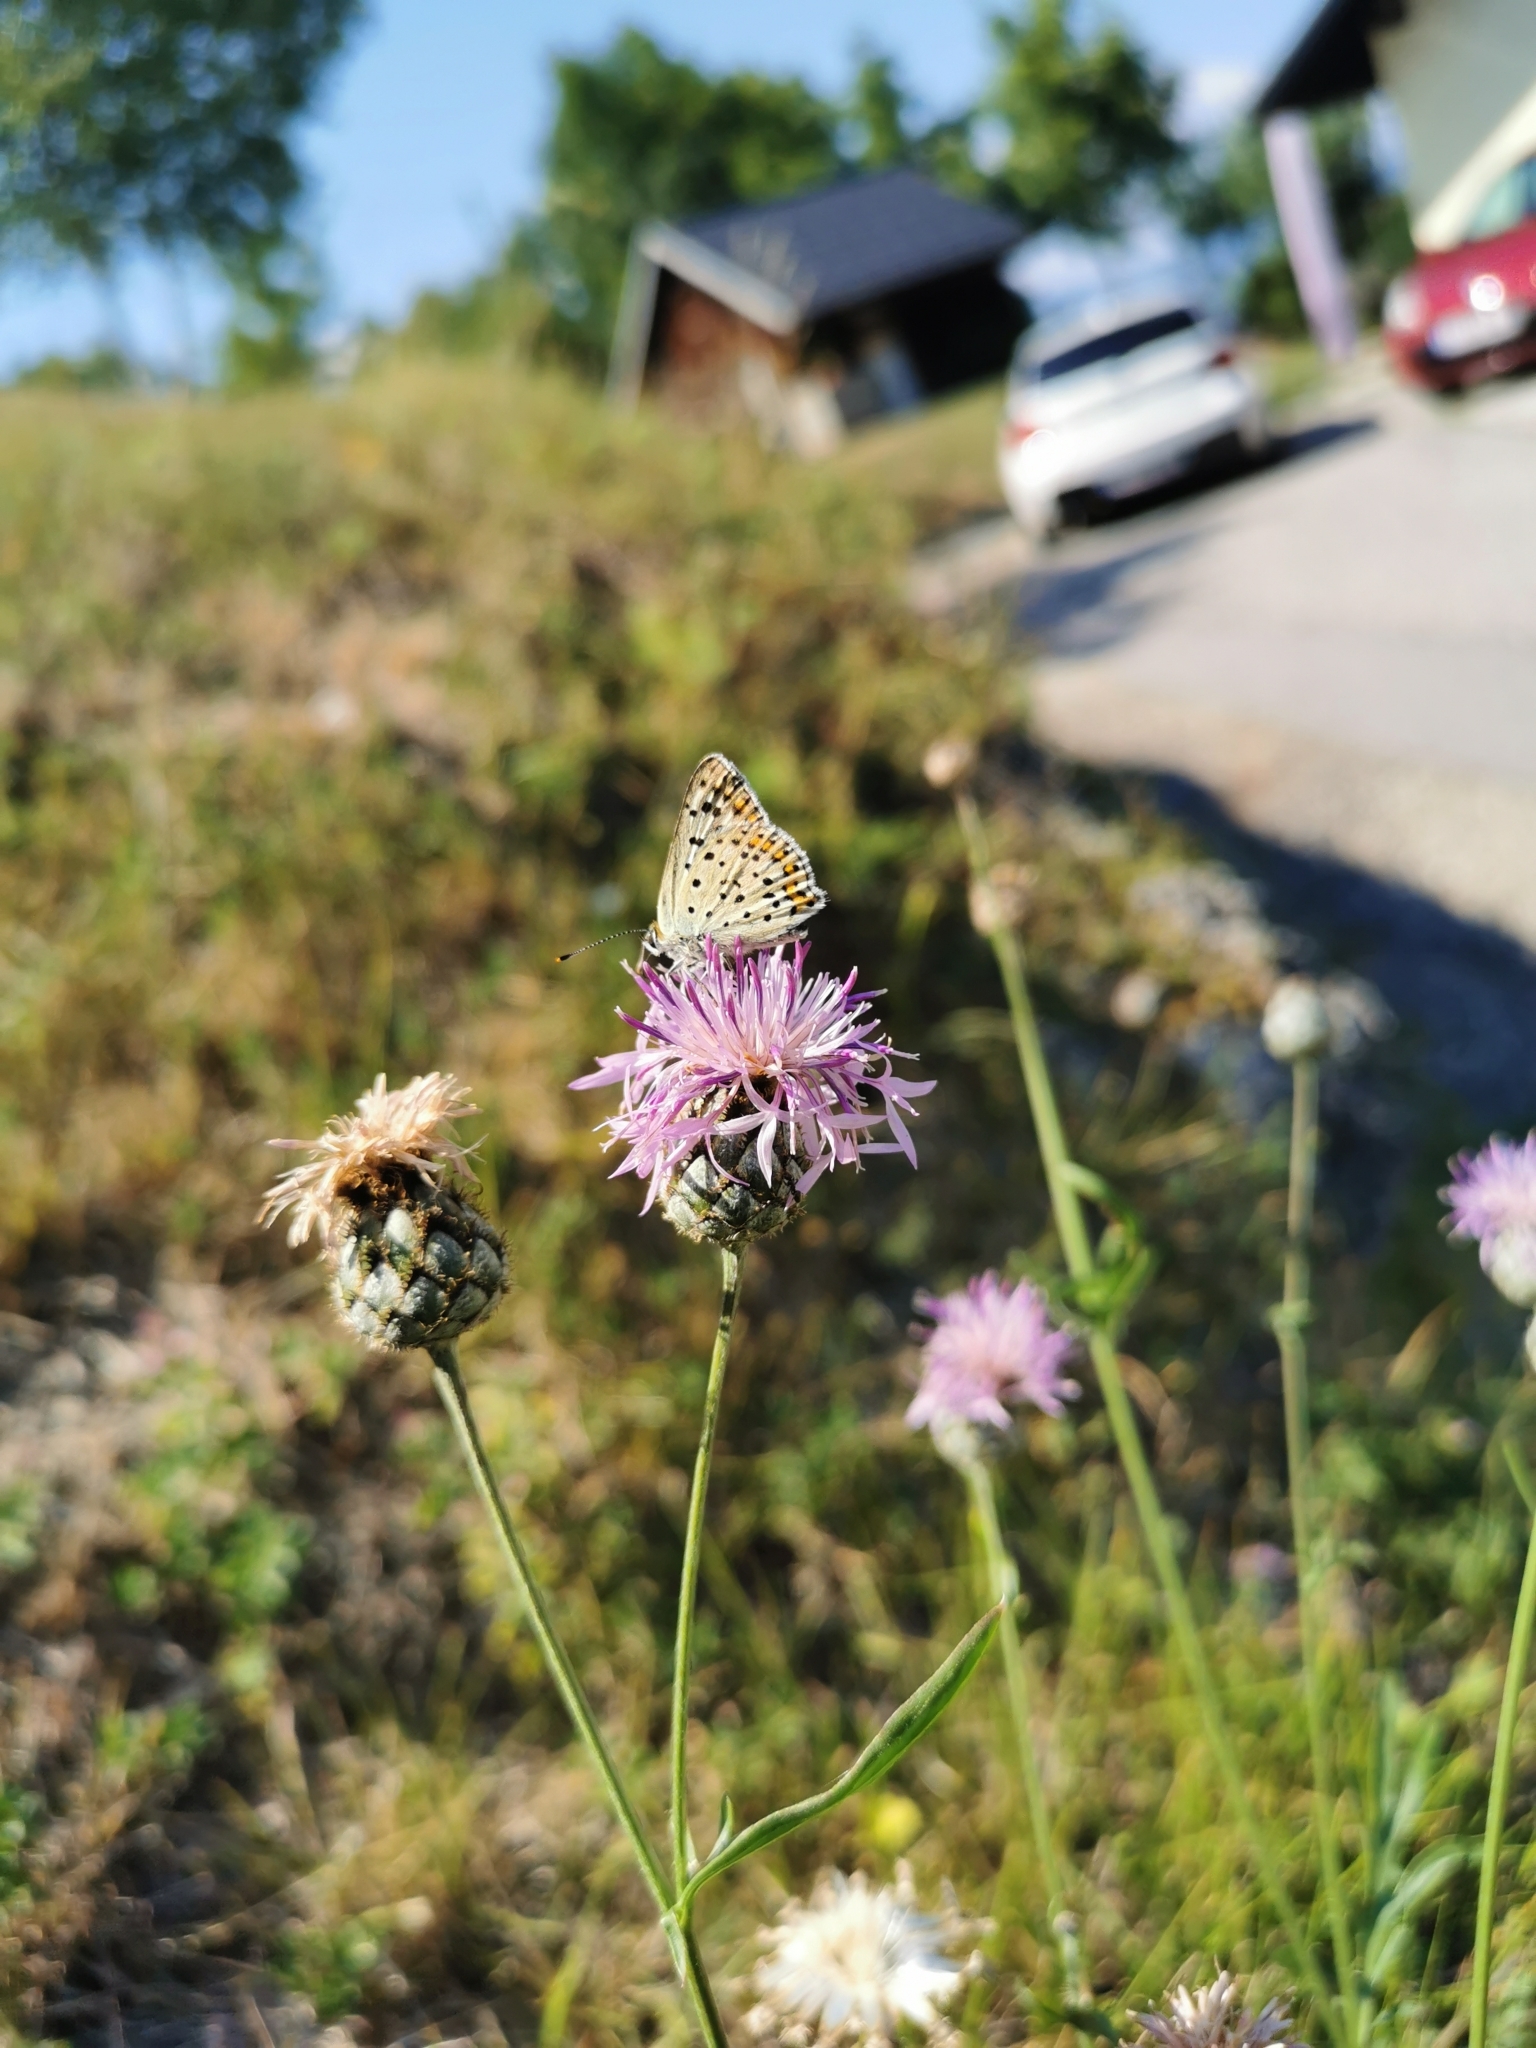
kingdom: Animalia
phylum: Arthropoda
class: Insecta
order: Lepidoptera
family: Lycaenidae
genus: Loweia
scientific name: Loweia tityrus
